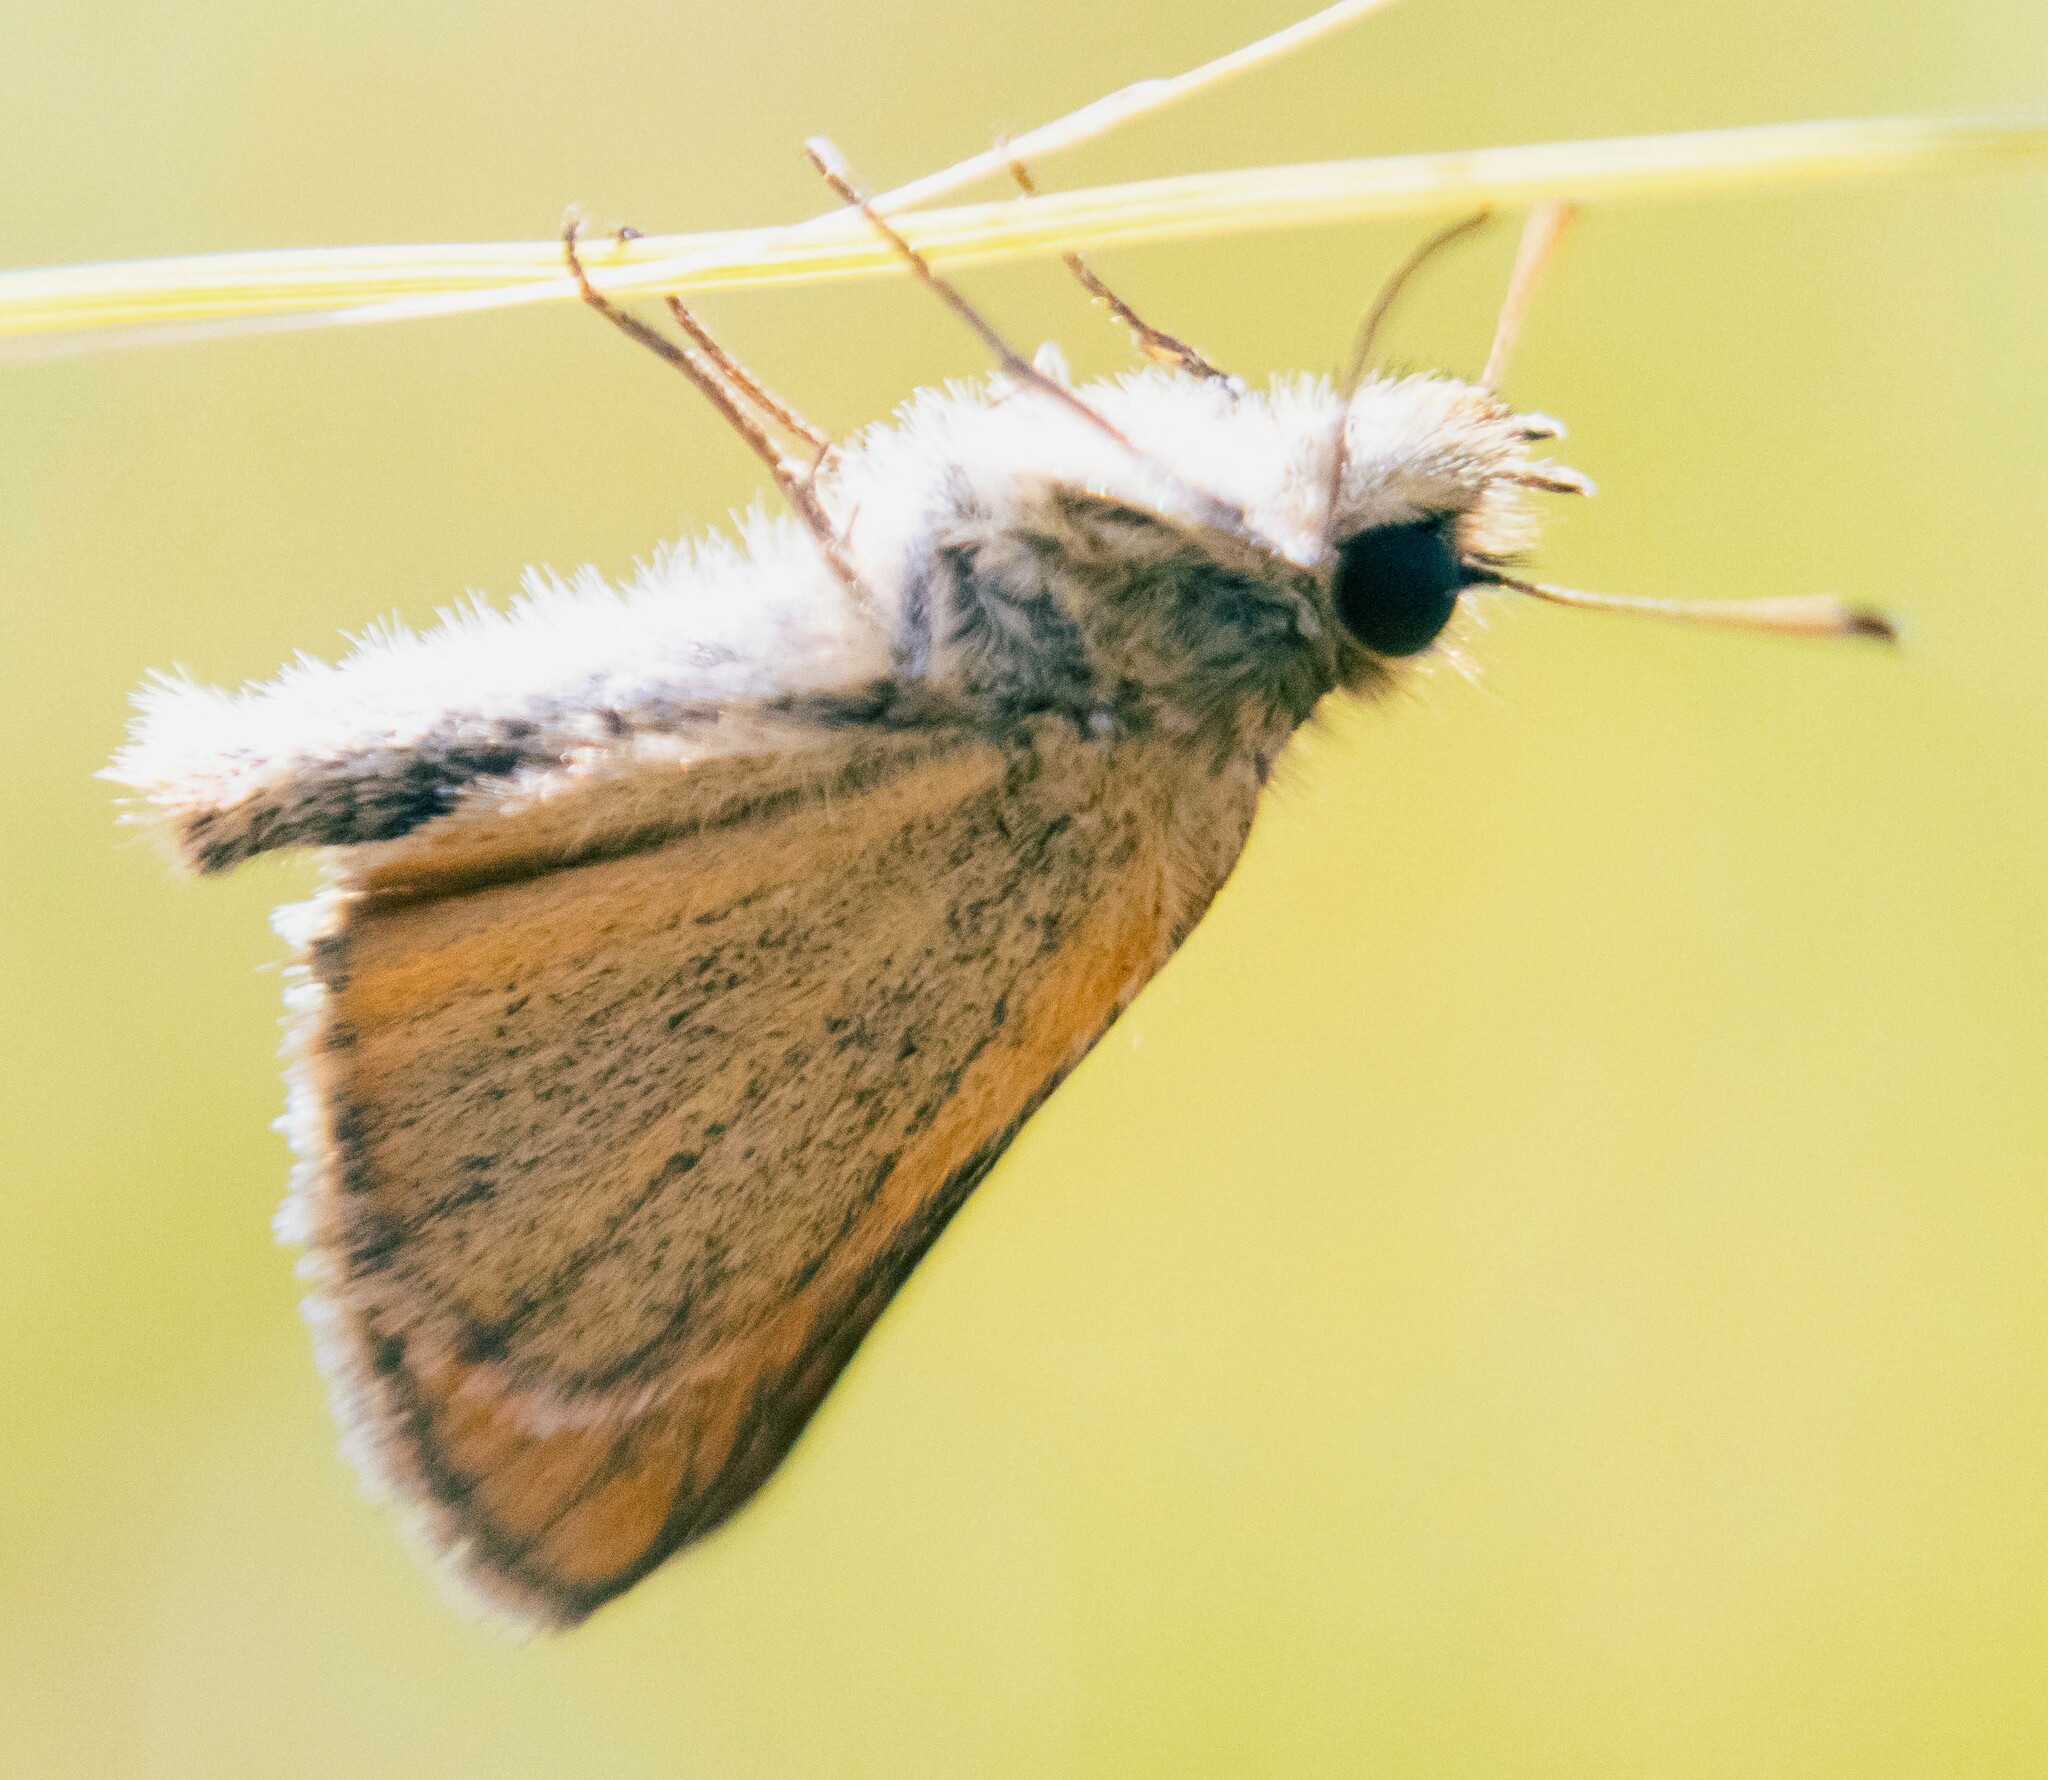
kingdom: Animalia
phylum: Arthropoda
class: Insecta
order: Lepidoptera
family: Hesperiidae
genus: Thymelicus
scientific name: Thymelicus lineola
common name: Essex skipper
